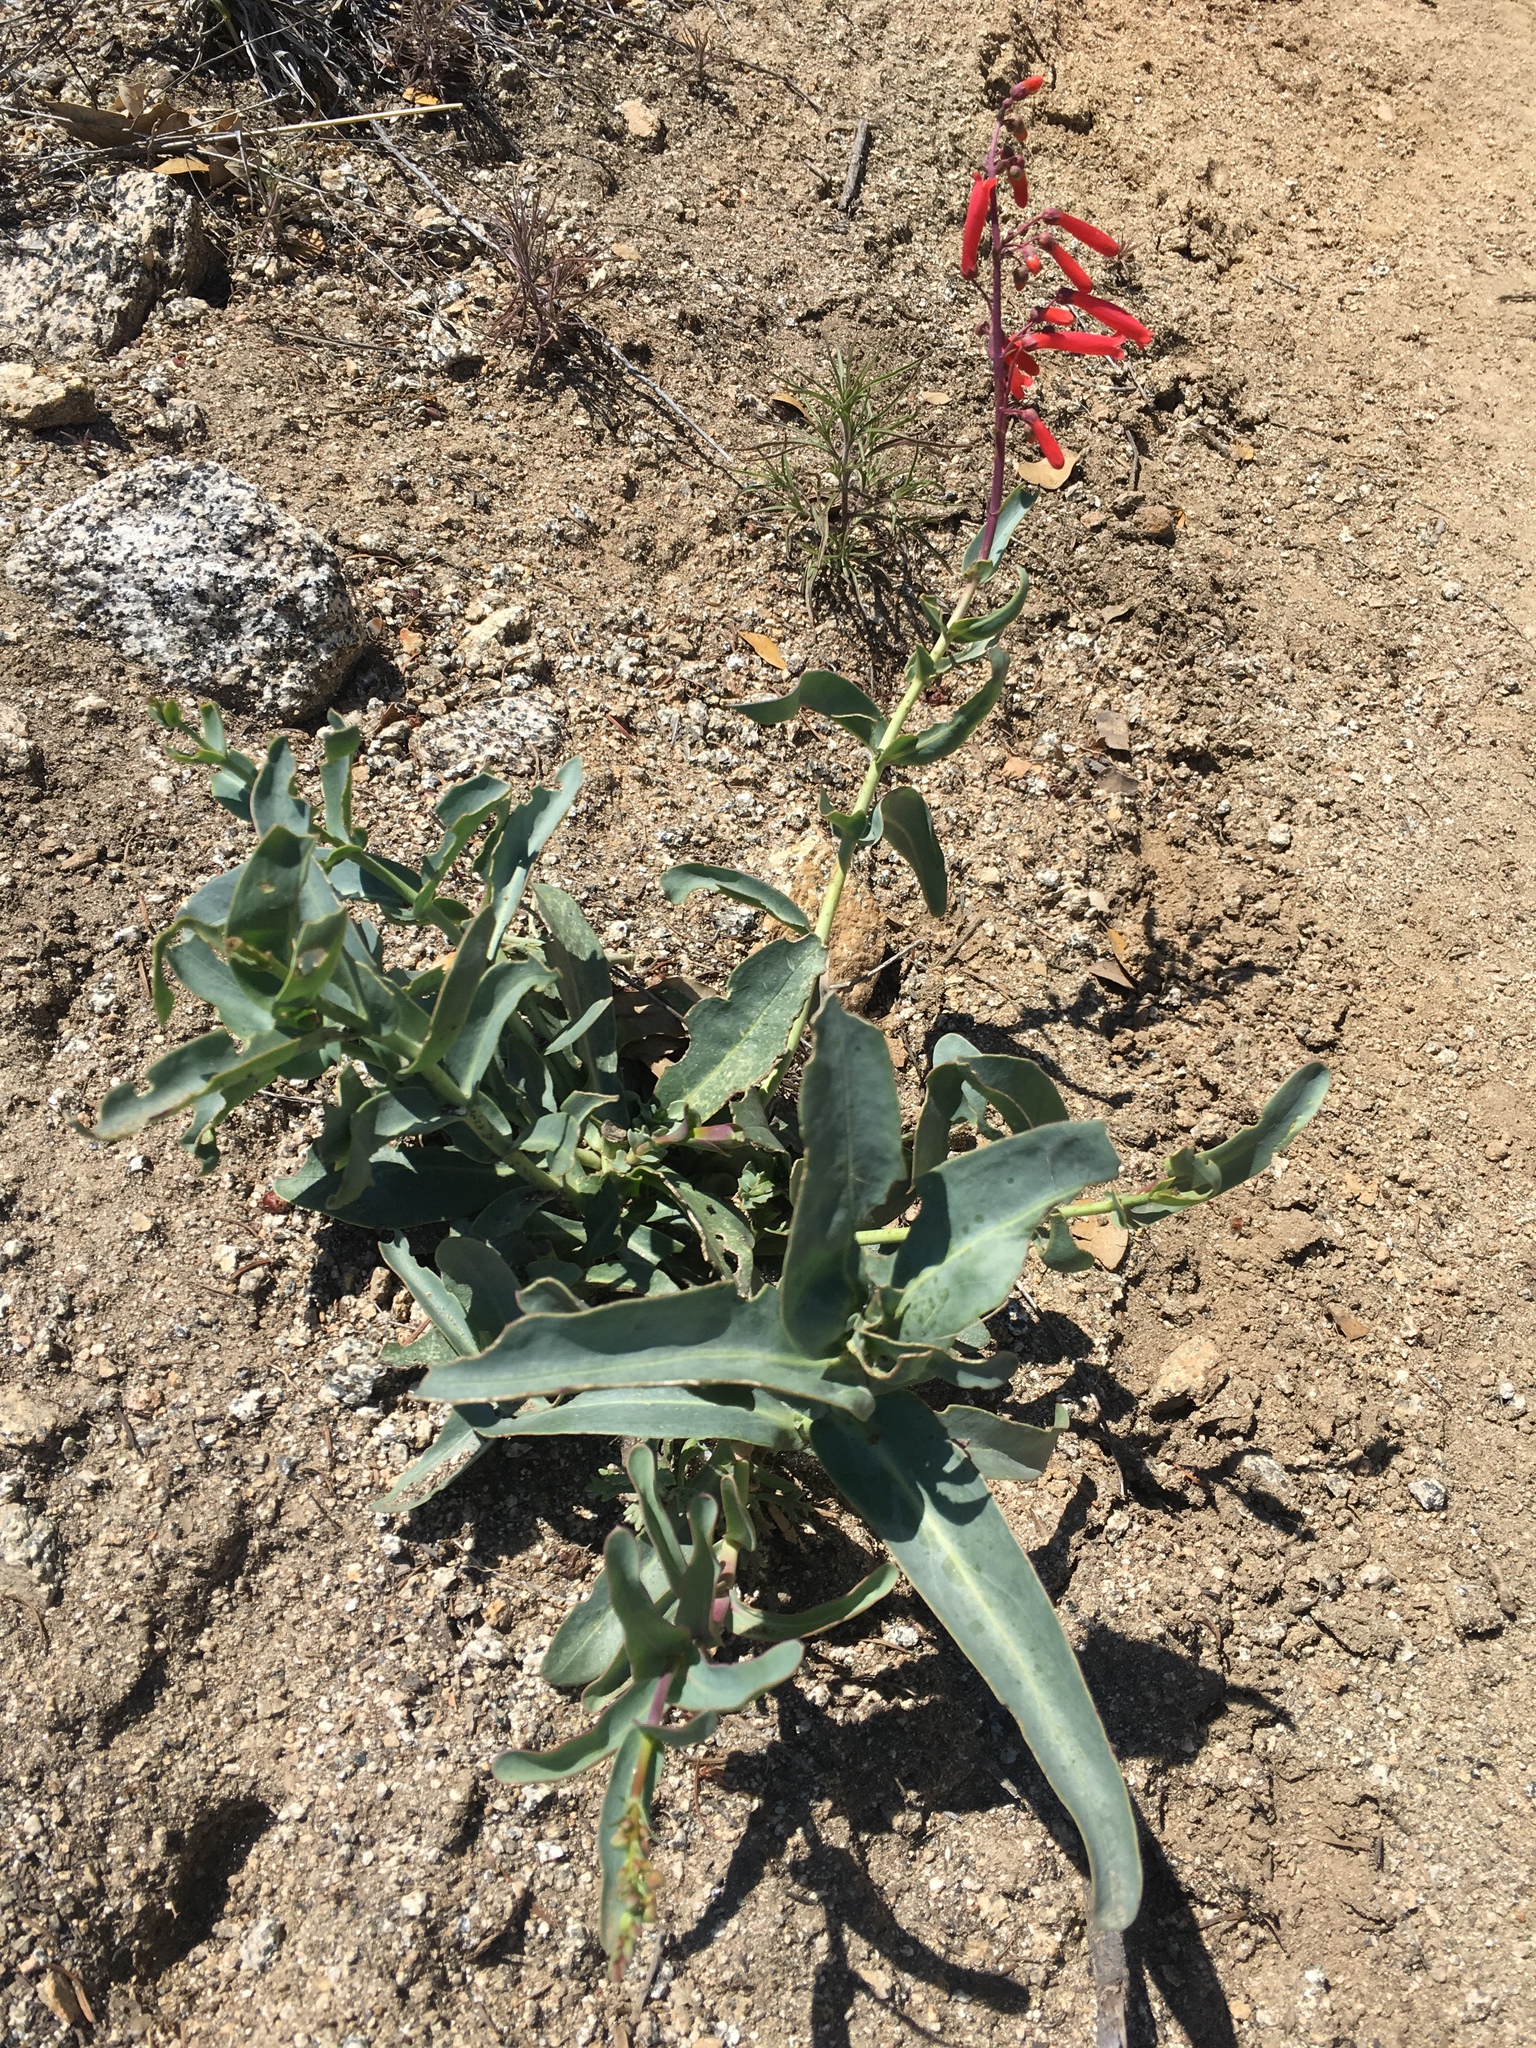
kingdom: Plantae
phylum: Tracheophyta
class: Magnoliopsida
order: Lamiales
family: Plantaginaceae
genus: Penstemon
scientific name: Penstemon centranthifolius
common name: Scarlet bugler
